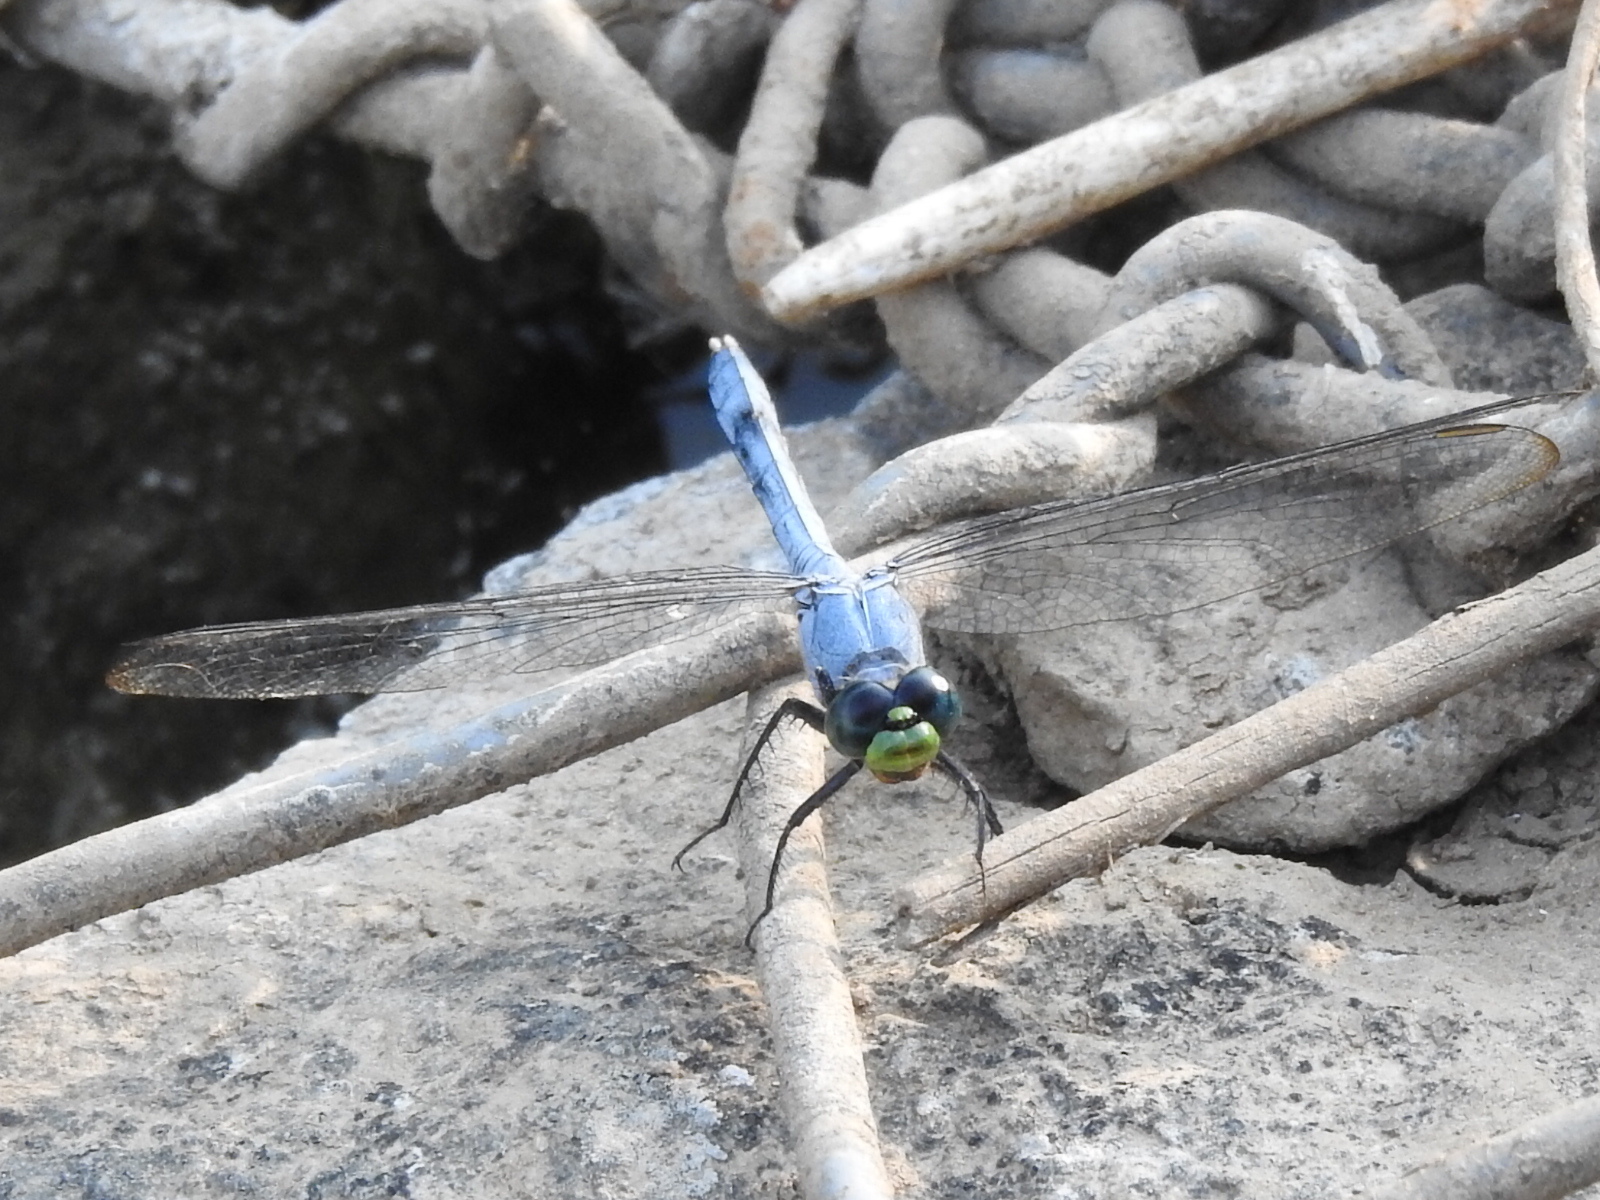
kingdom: Animalia
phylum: Arthropoda
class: Insecta
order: Odonata
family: Libellulidae
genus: Erythemis
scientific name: Erythemis simplicicollis
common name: Eastern pondhawk
